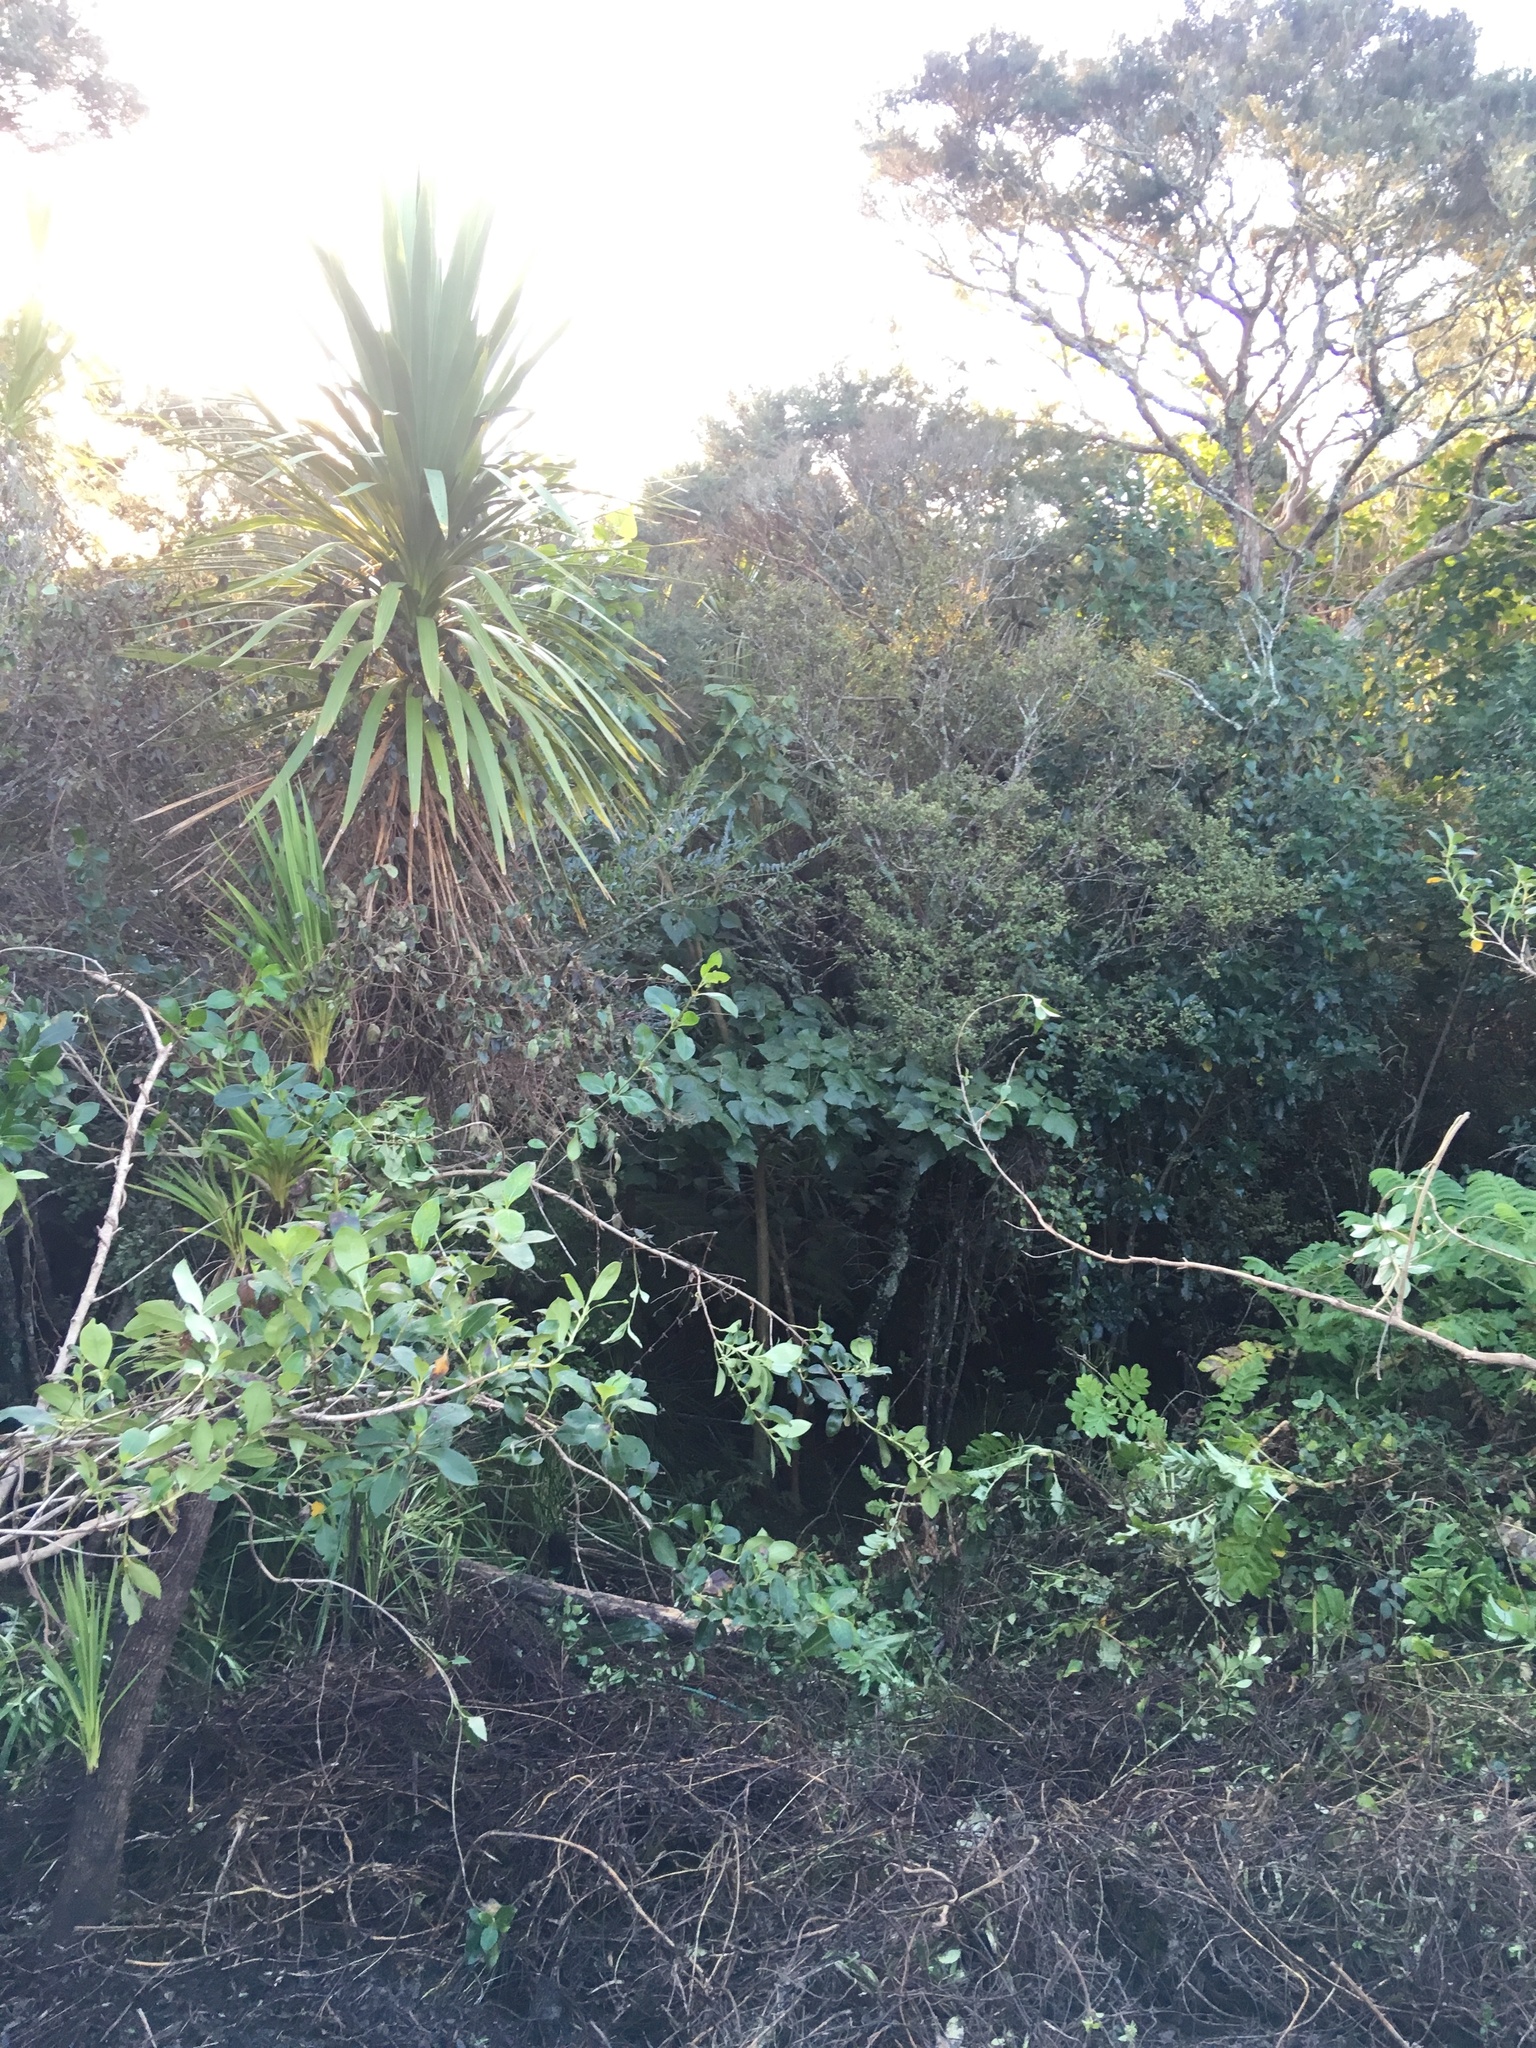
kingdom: Plantae
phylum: Tracheophyta
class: Magnoliopsida
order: Ericales
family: Primulaceae
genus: Myrsine
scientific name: Myrsine australis
